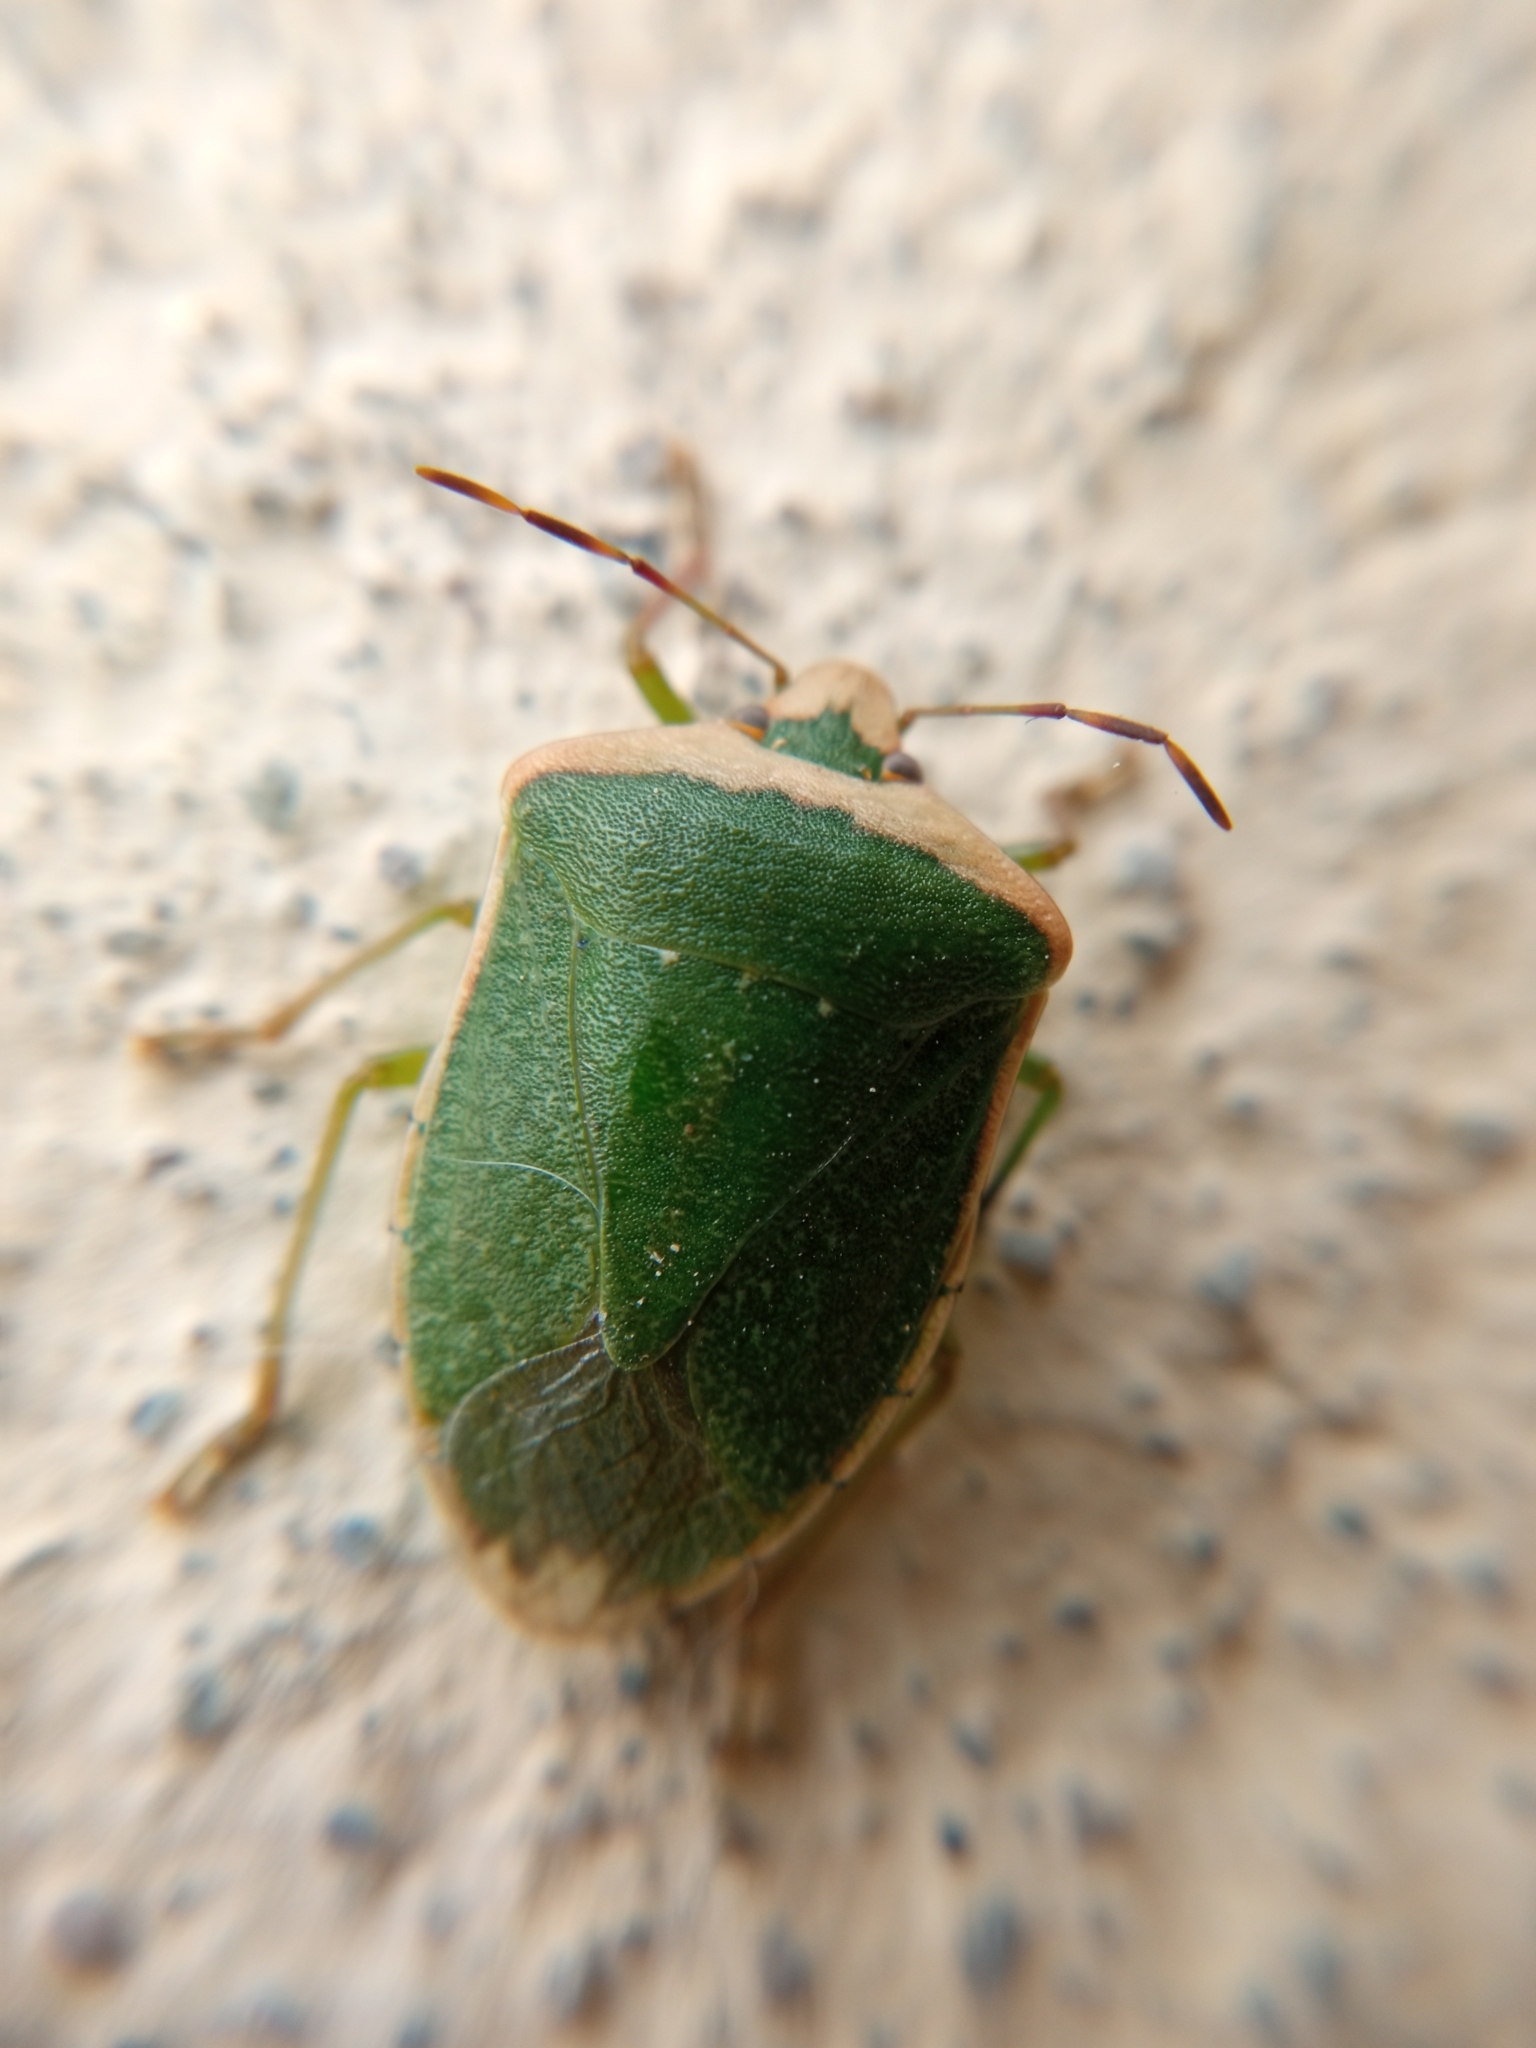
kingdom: Animalia
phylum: Arthropoda
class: Insecta
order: Hemiptera
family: Pentatomidae
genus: Nezara
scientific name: Nezara viridula
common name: Southern green stink bug
